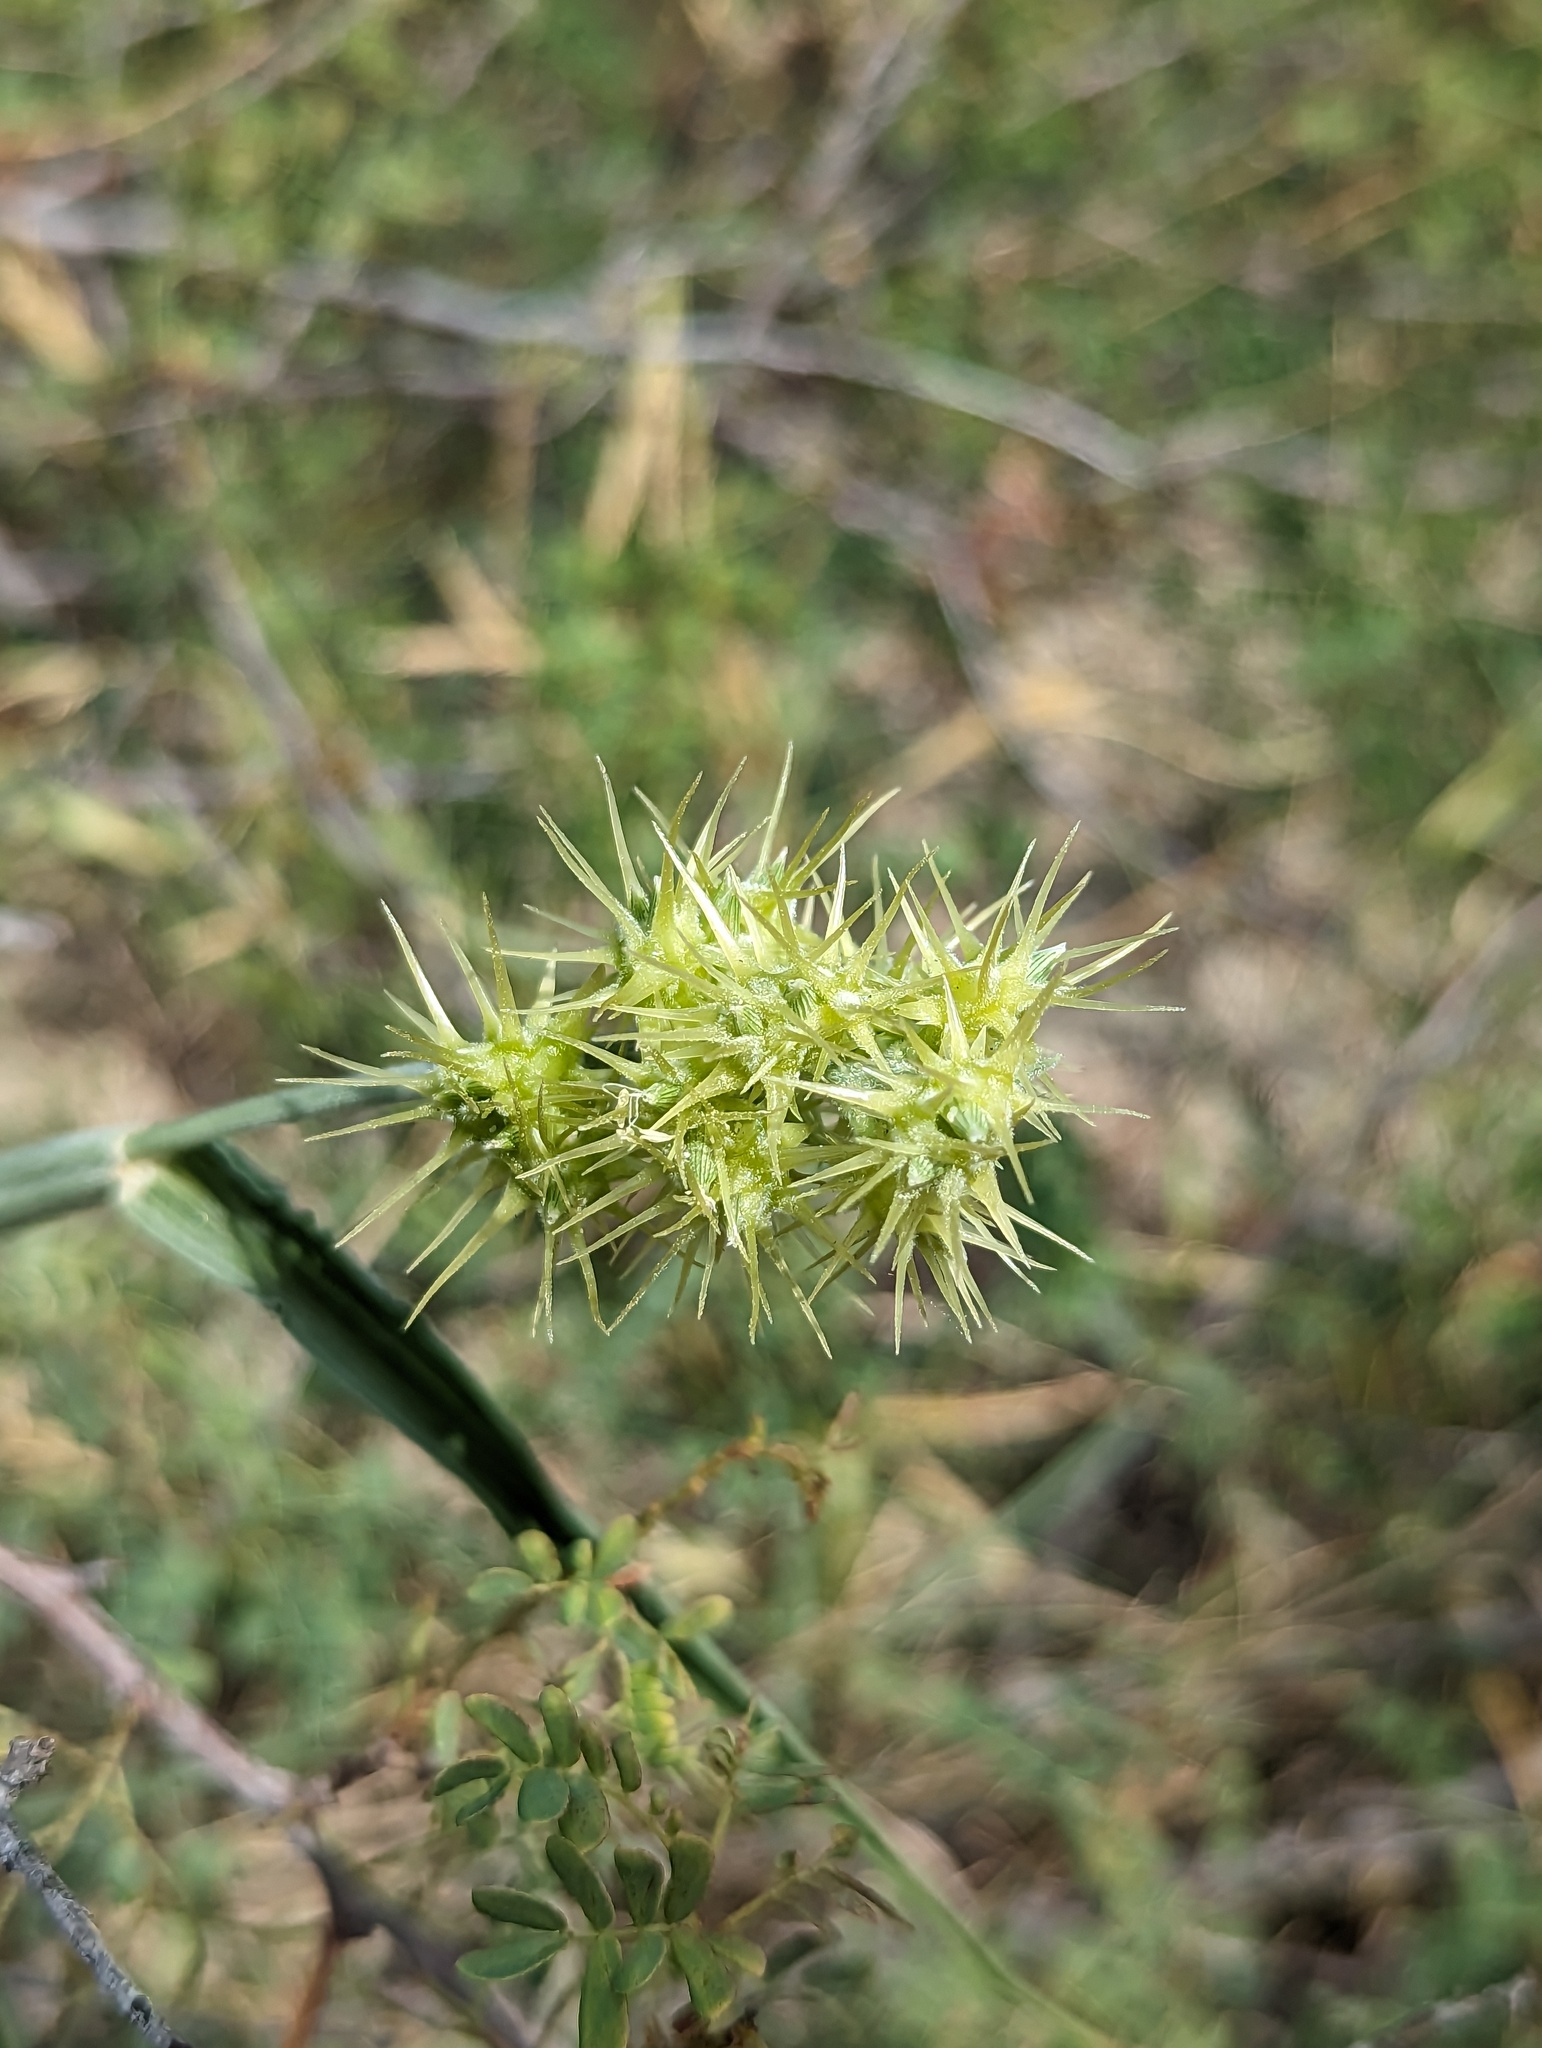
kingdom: Plantae
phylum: Tracheophyta
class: Liliopsida
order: Poales
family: Poaceae
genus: Cenchrus
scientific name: Cenchrus palmeri
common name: Giant sandbur
